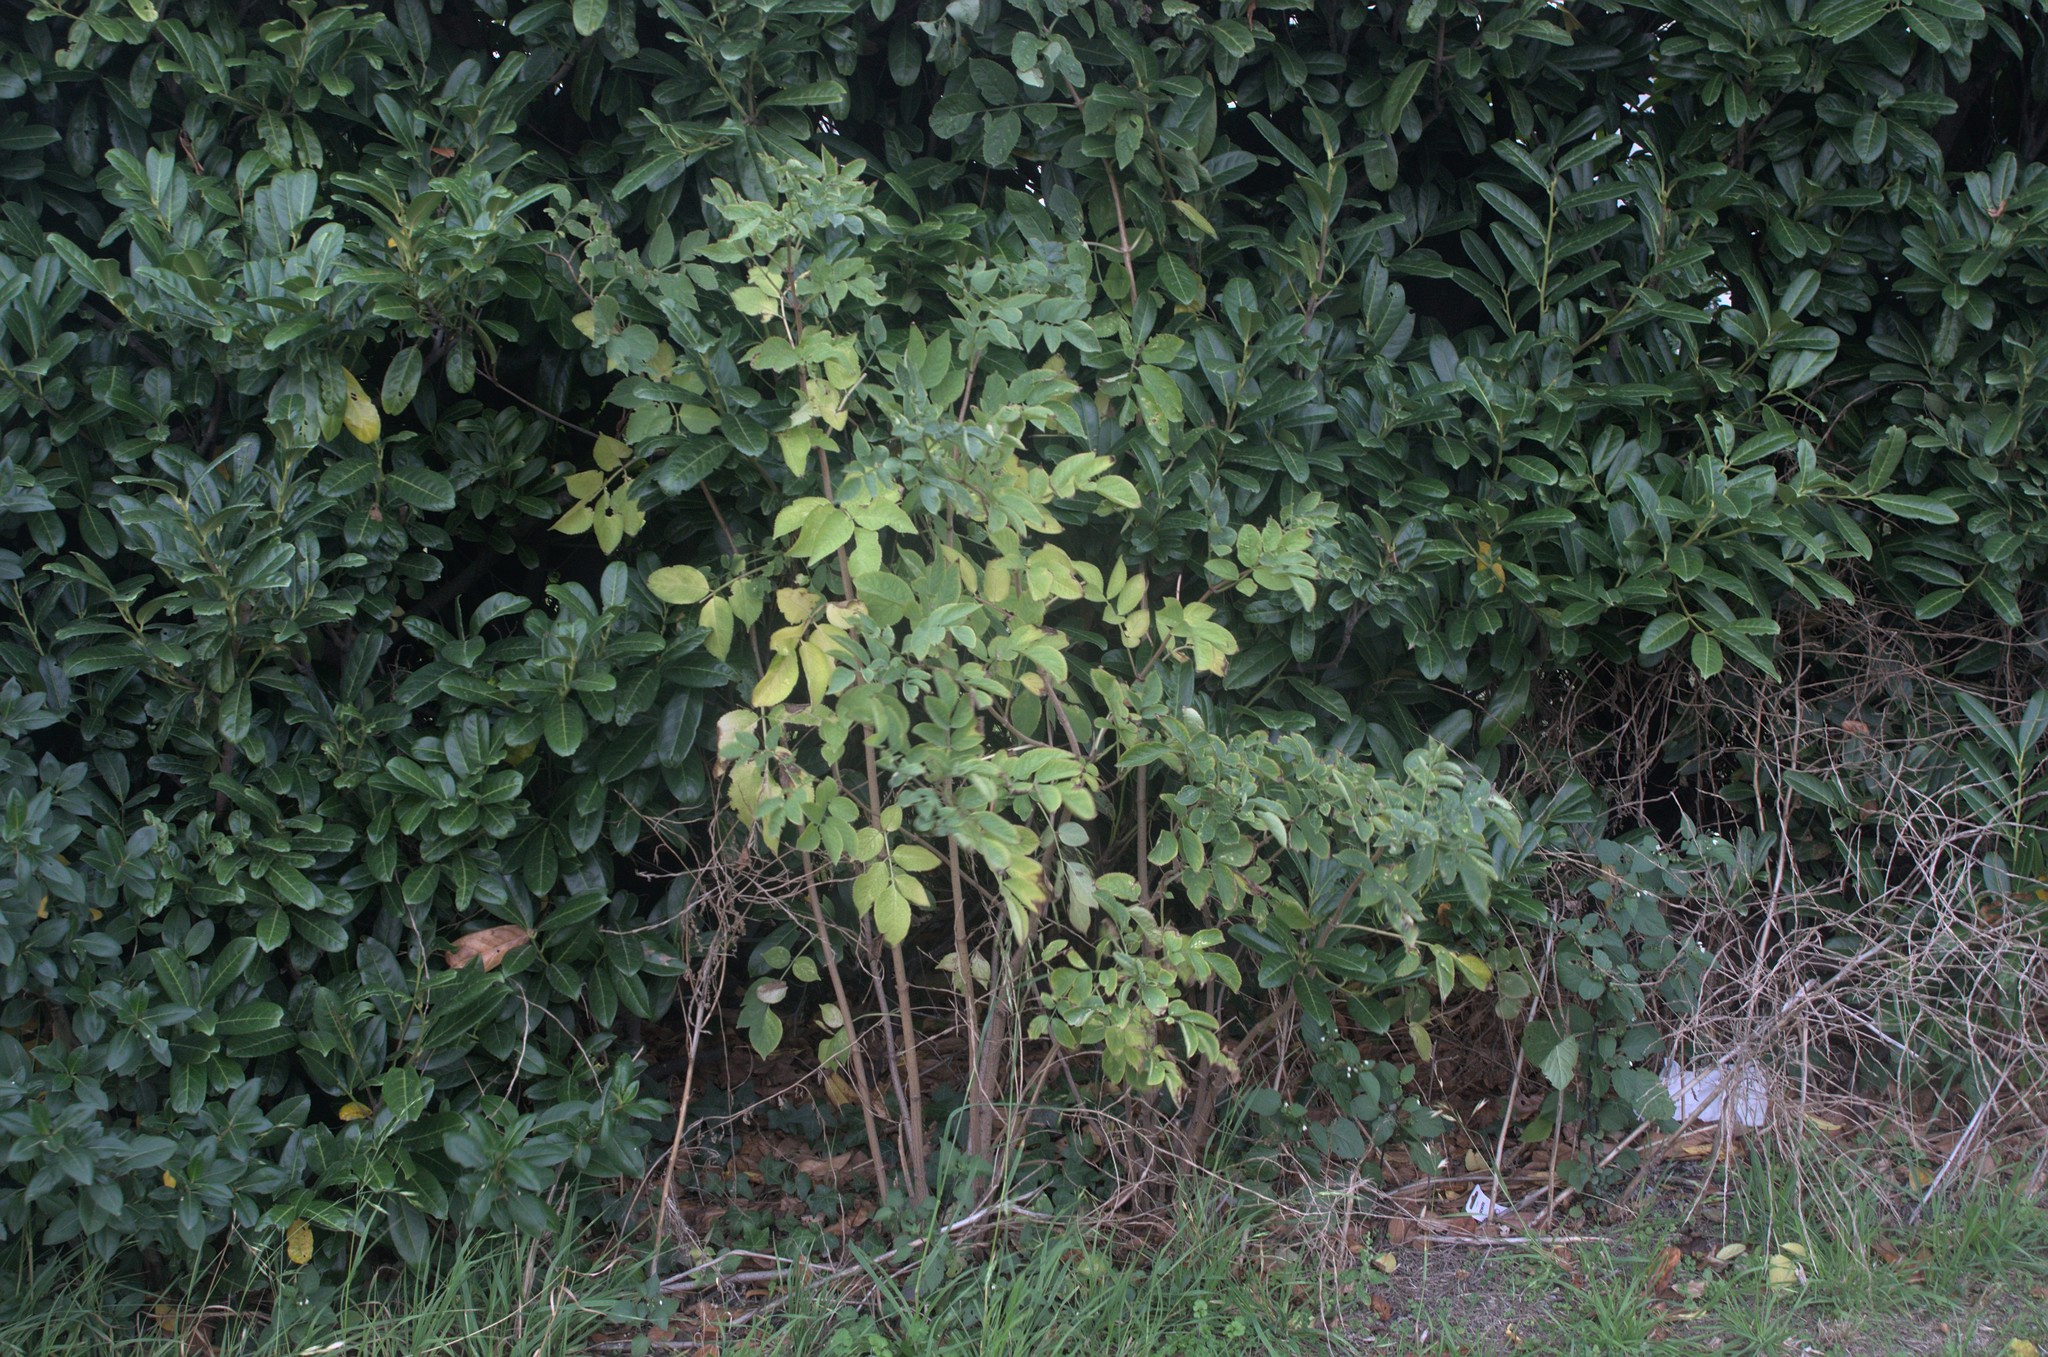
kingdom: Plantae
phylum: Tracheophyta
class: Magnoliopsida
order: Dipsacales
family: Viburnaceae
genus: Sambucus
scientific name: Sambucus nigra
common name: Elder
